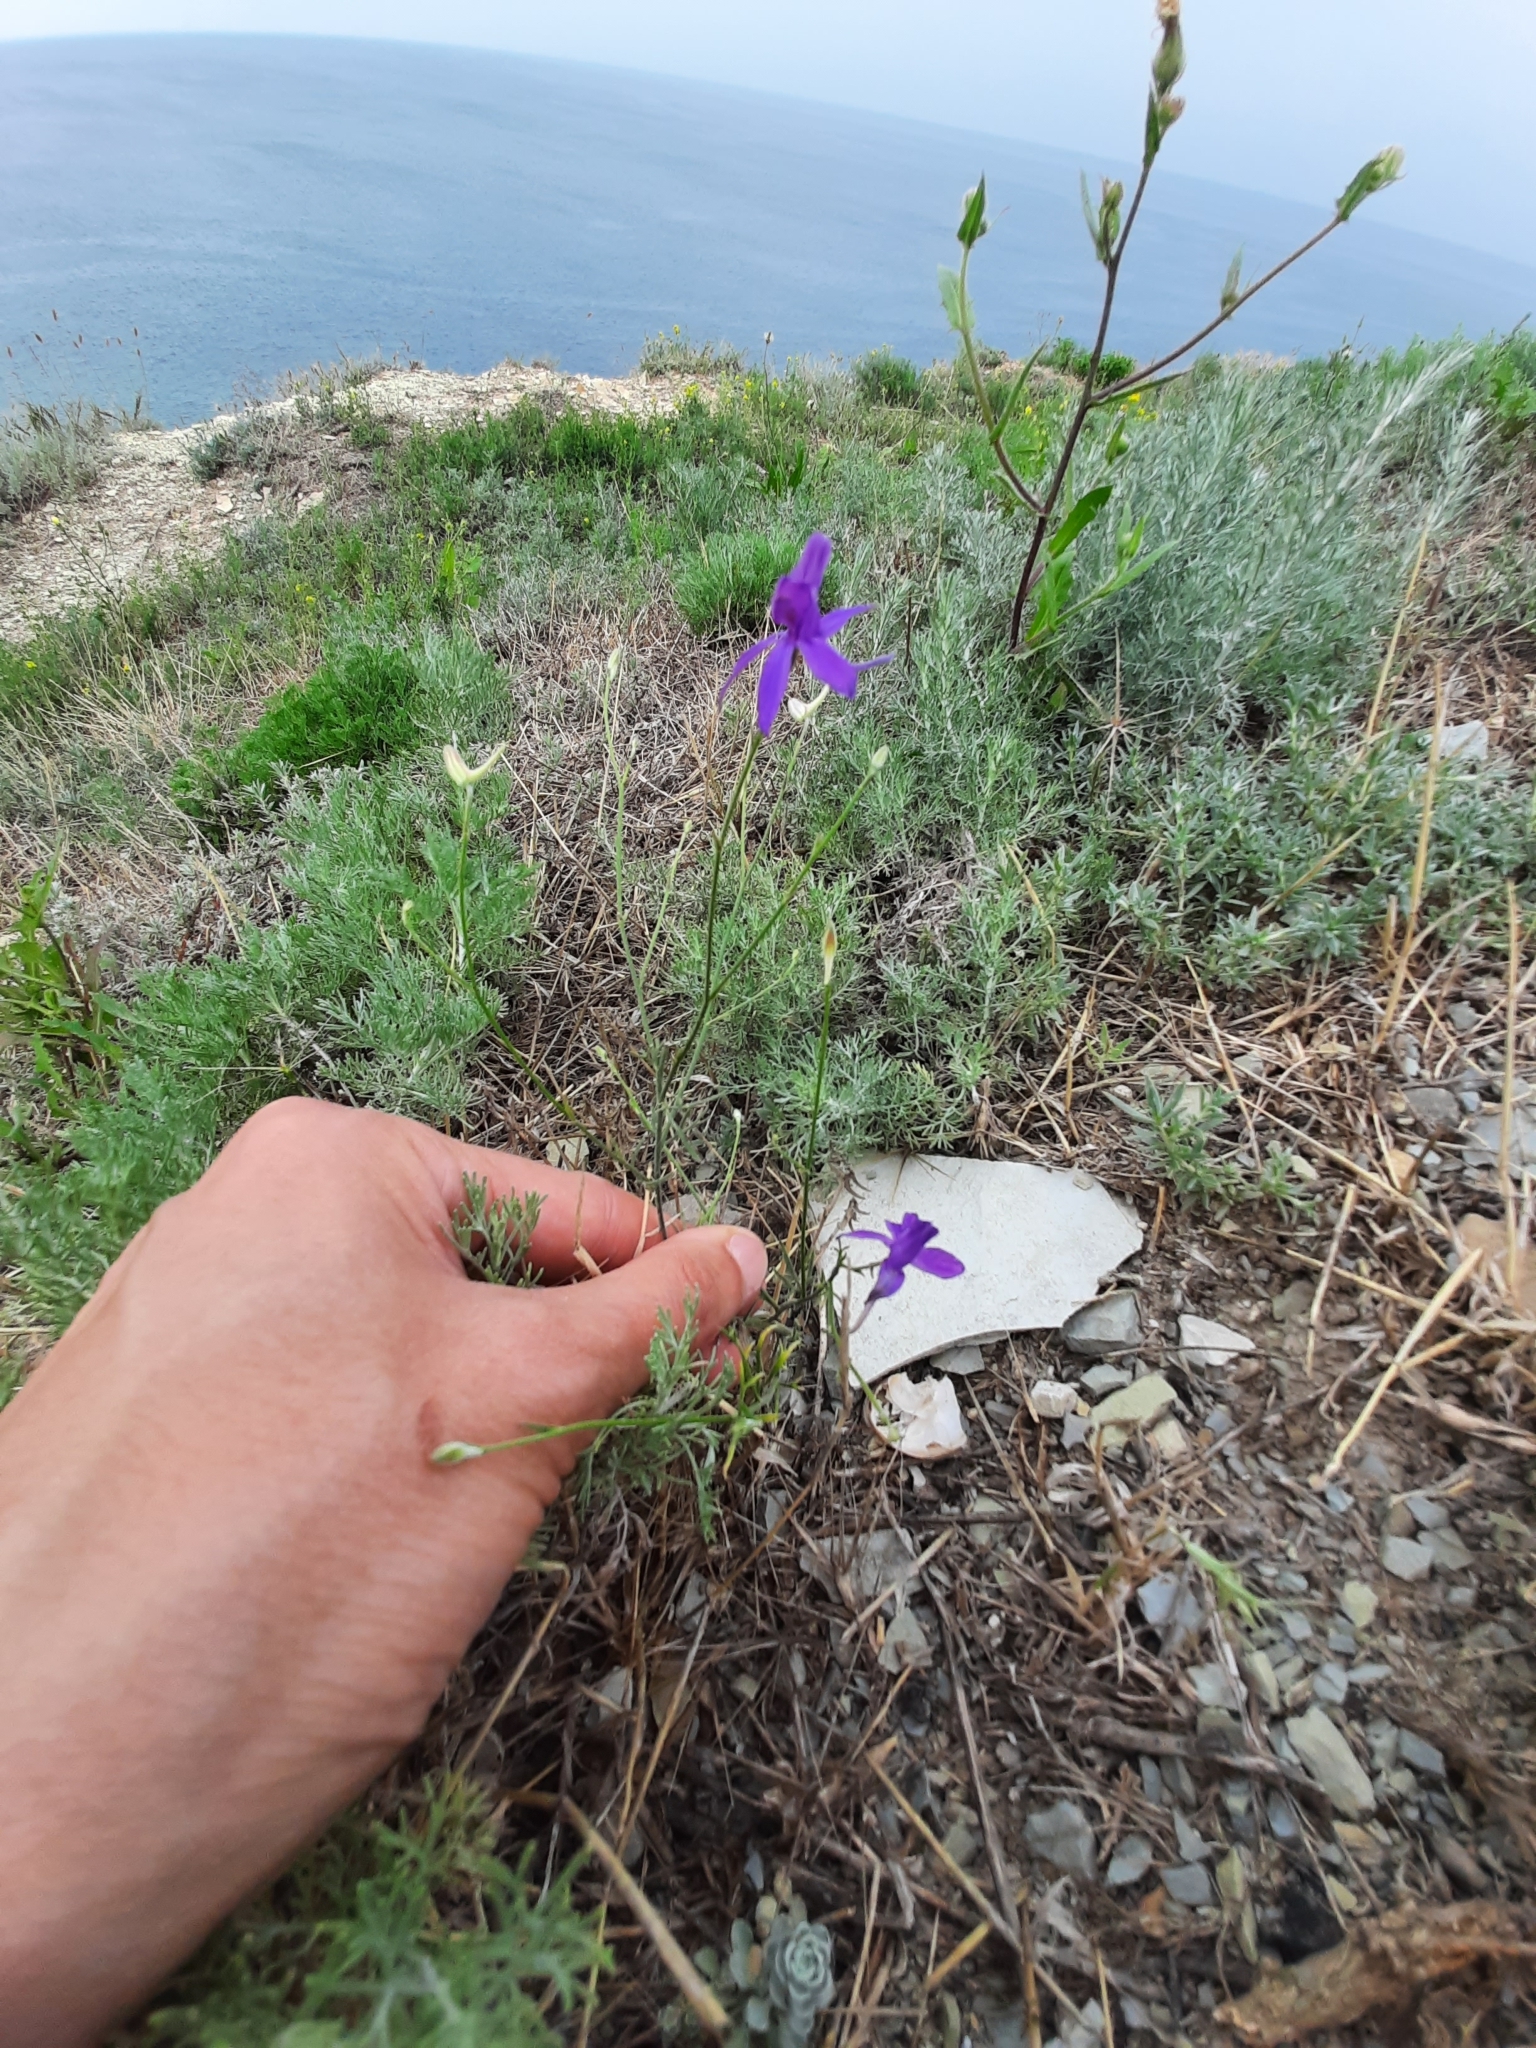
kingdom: Plantae
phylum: Tracheophyta
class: Magnoliopsida
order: Ranunculales
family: Ranunculaceae
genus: Delphinium
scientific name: Delphinium consolida
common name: Branching larkspur
